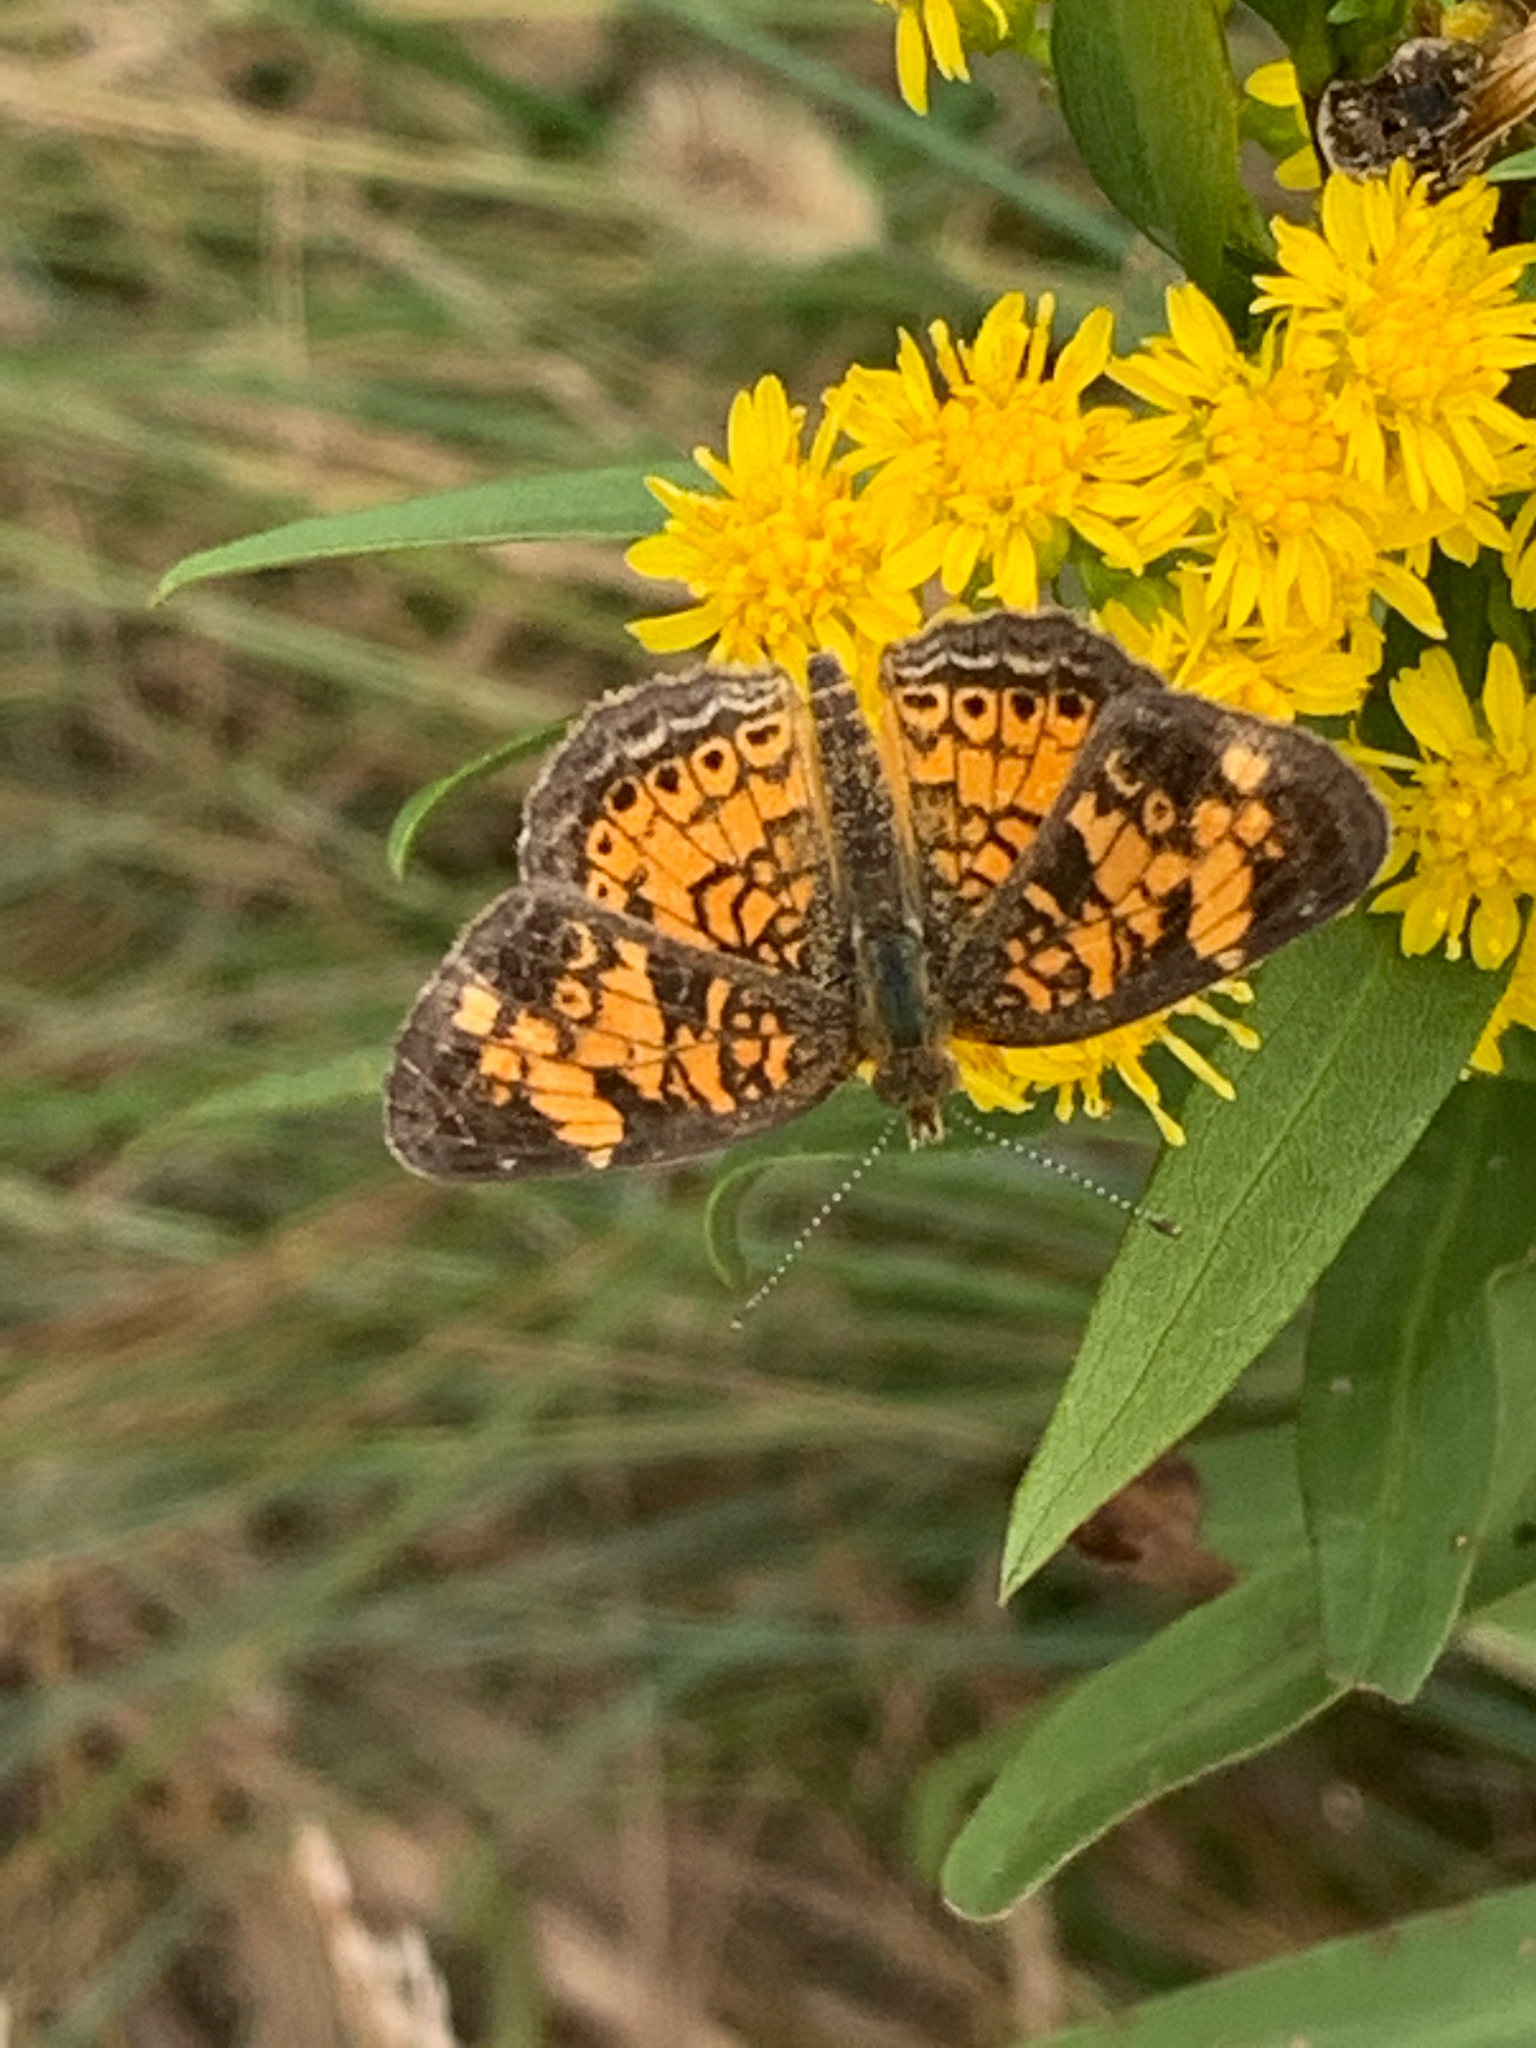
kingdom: Animalia
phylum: Arthropoda
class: Insecta
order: Lepidoptera
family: Nymphalidae
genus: Phyciodes
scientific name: Phyciodes tharos
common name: Pearl crescent
